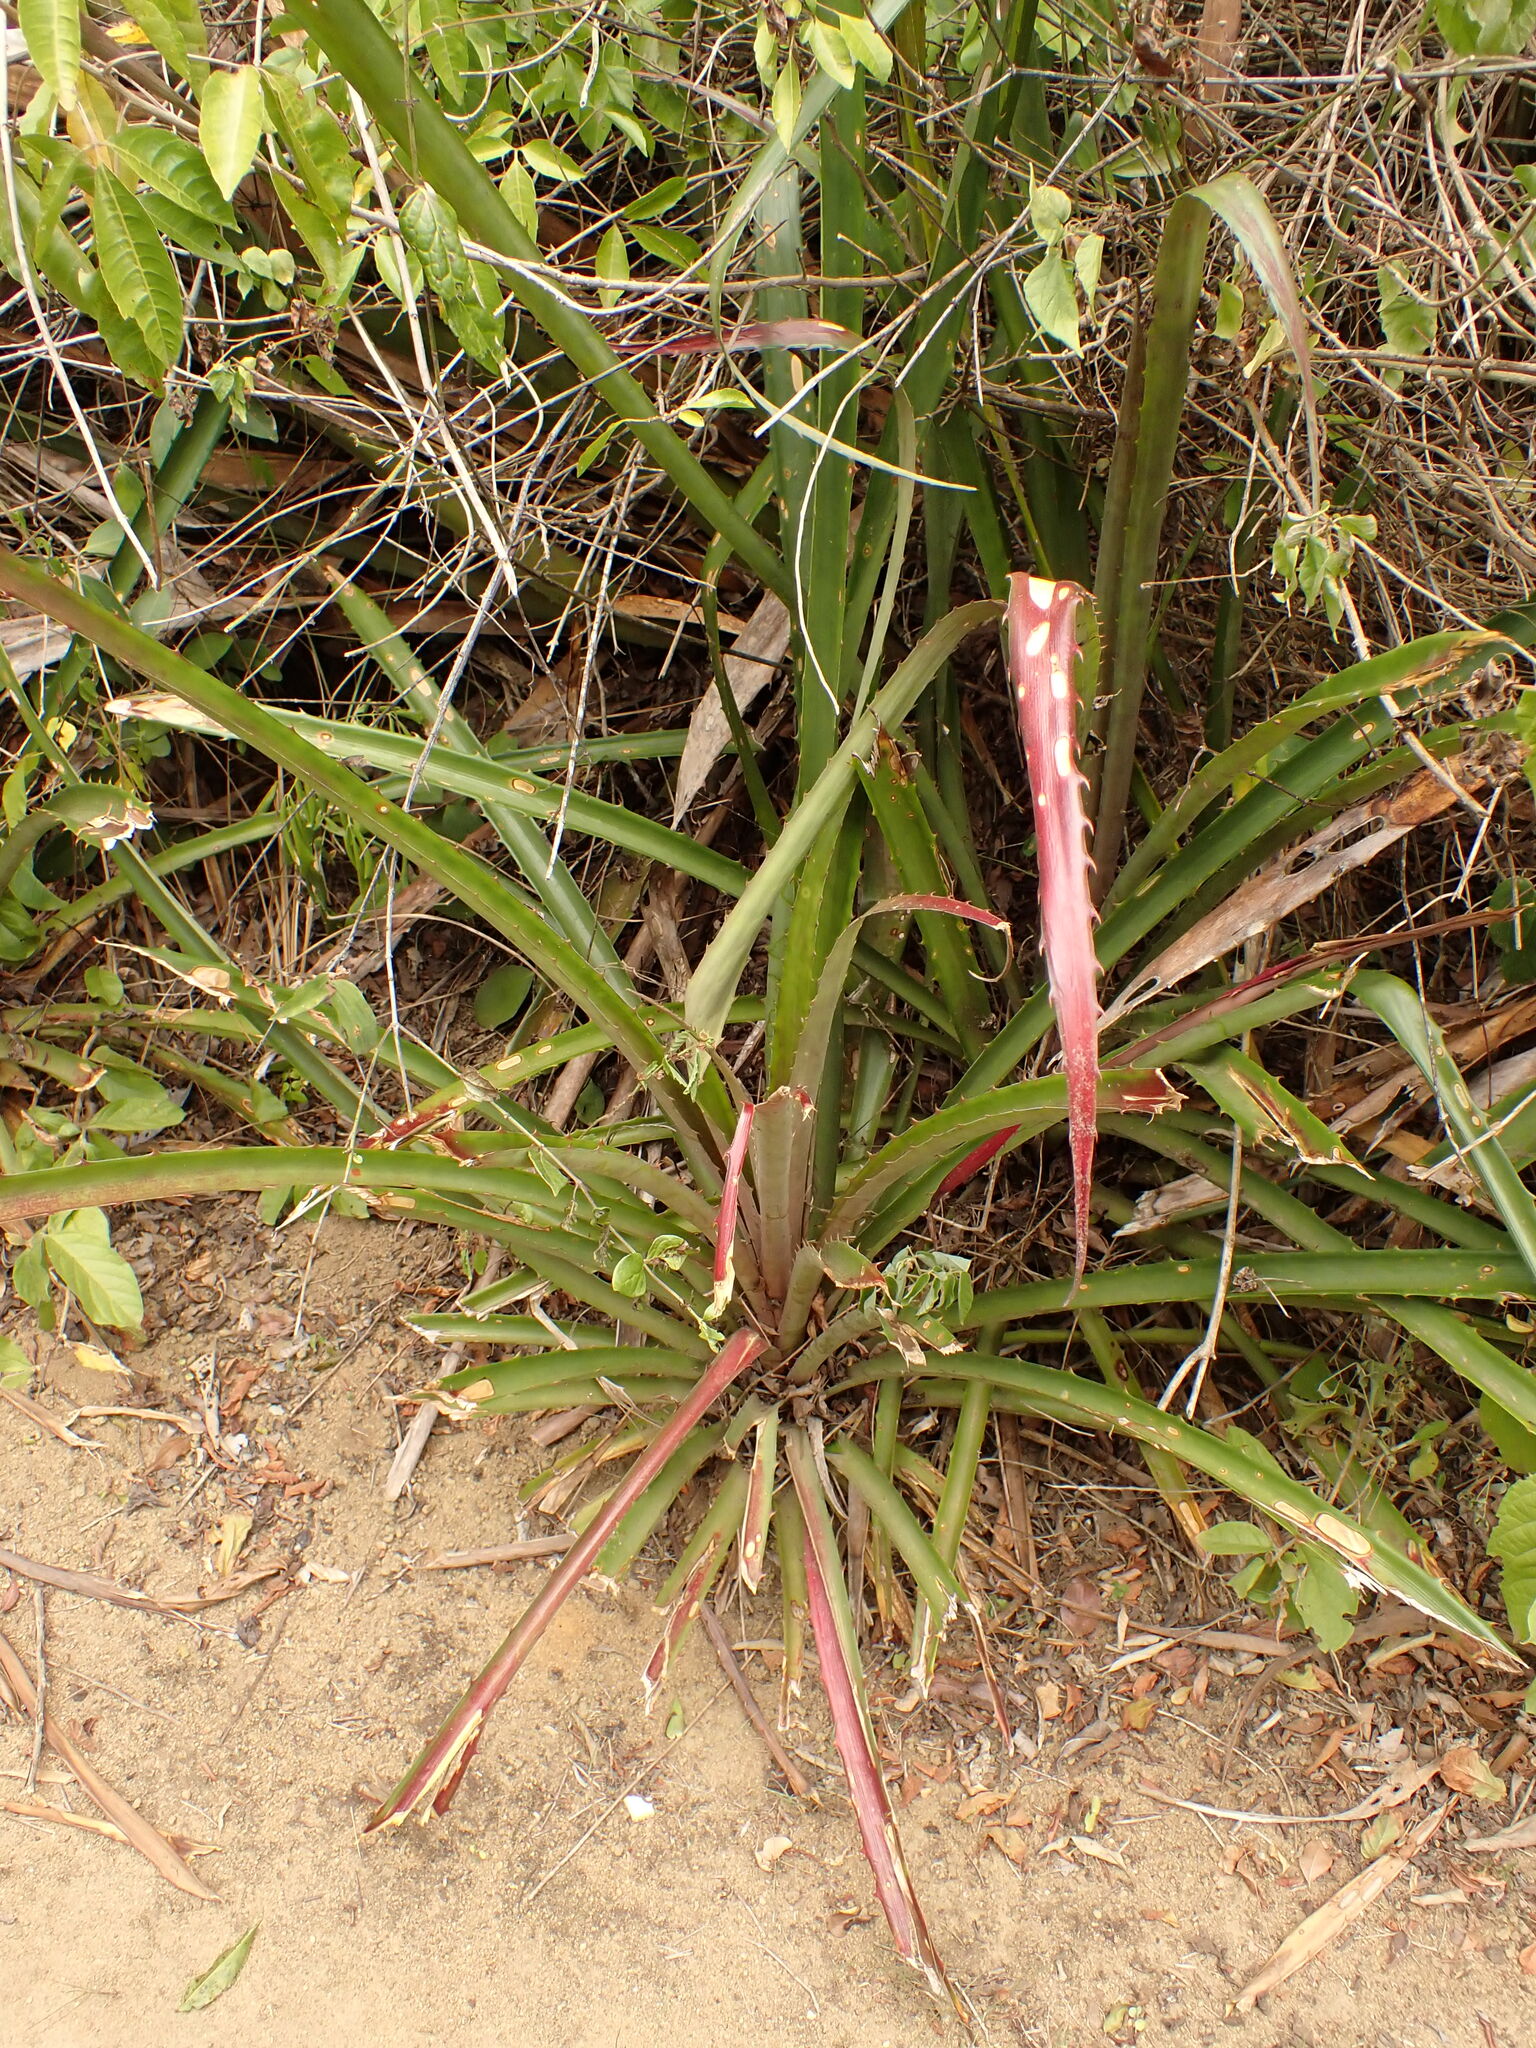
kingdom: Plantae
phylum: Tracheophyta
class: Liliopsida
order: Poales
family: Bromeliaceae
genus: Bromelia
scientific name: Bromelia antiacantha
